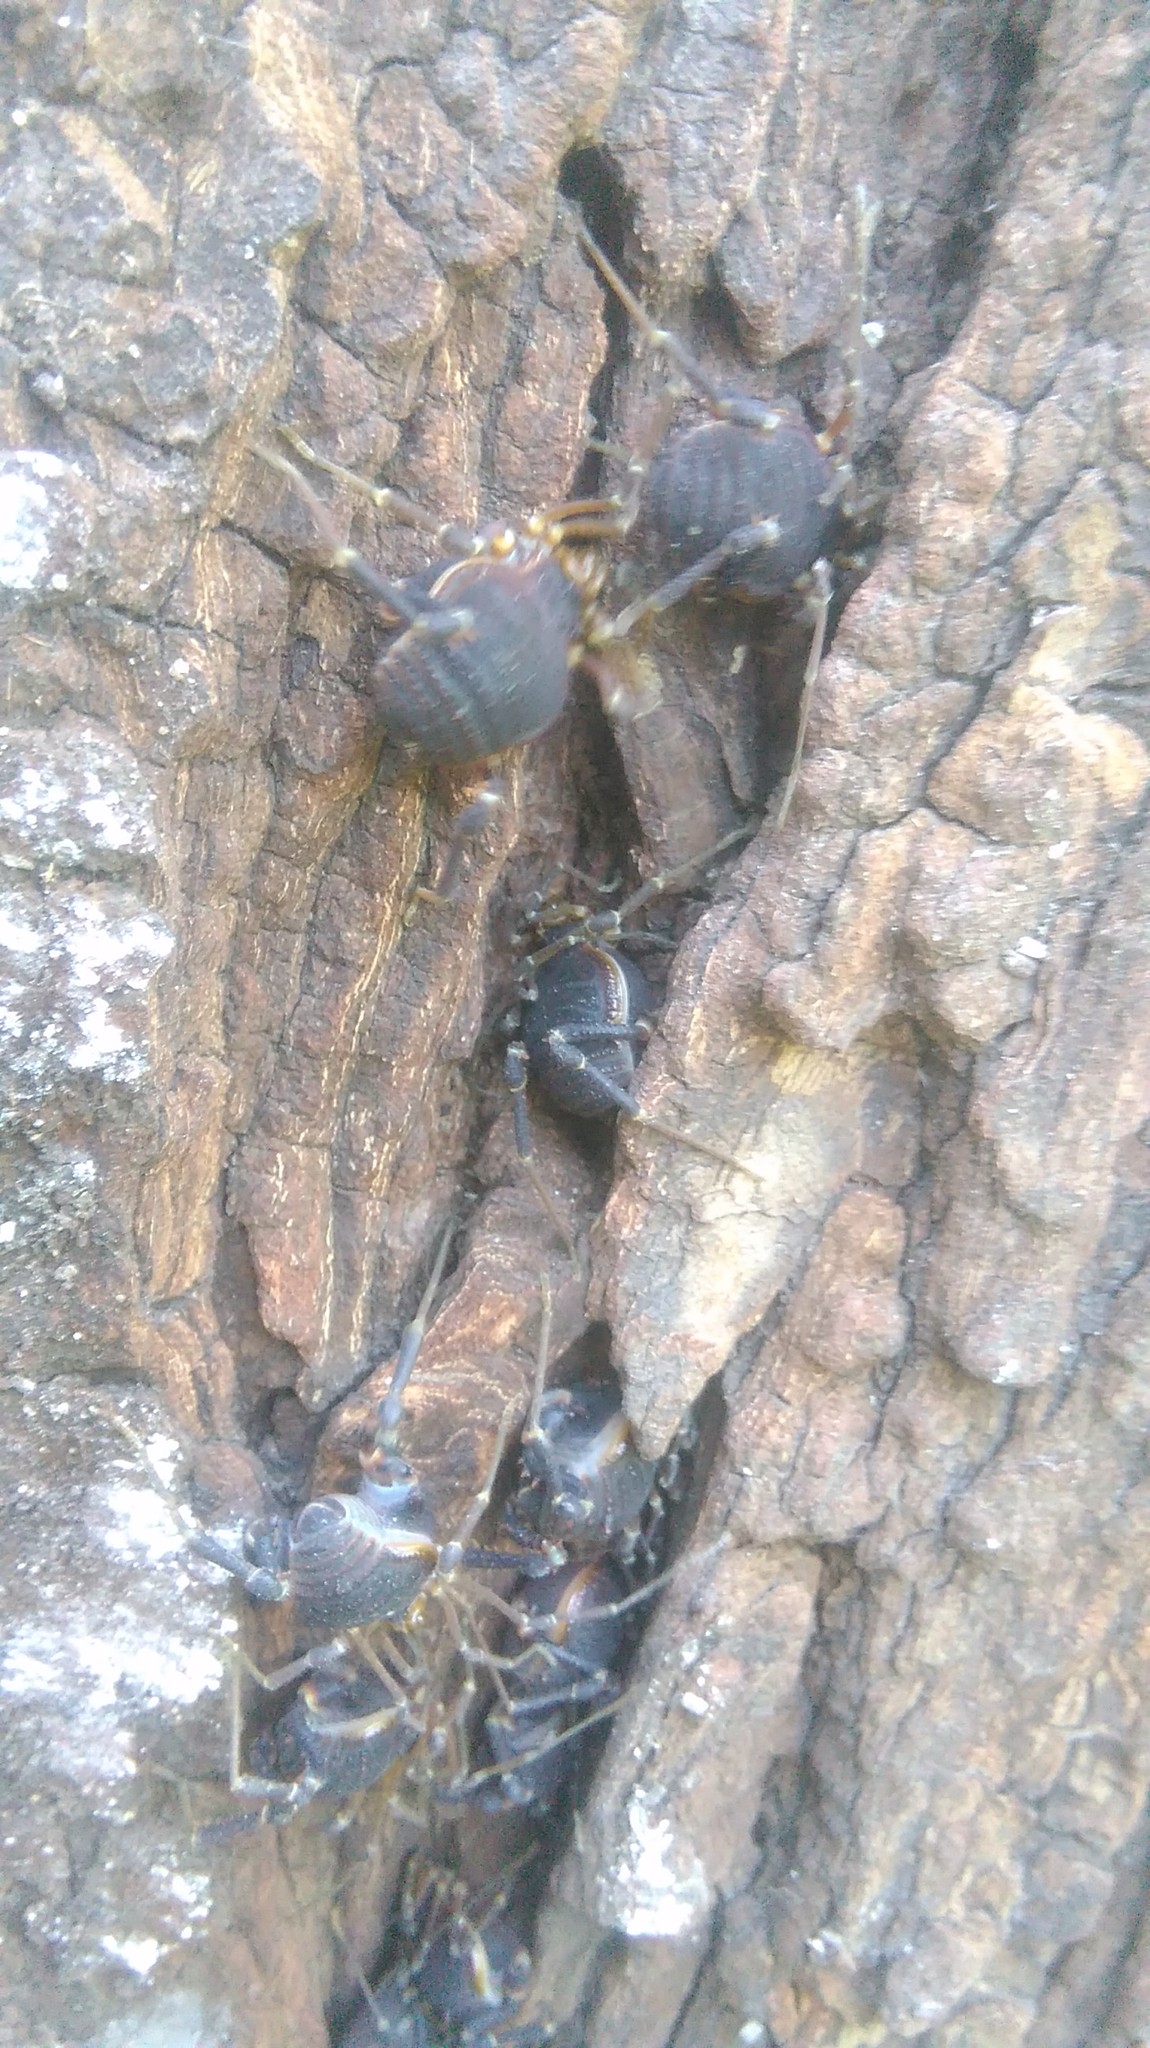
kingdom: Animalia
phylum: Arthropoda
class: Arachnida
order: Opiliones
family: Gonyleptidae
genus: Acanthopachylus
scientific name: Acanthopachylus robustus
